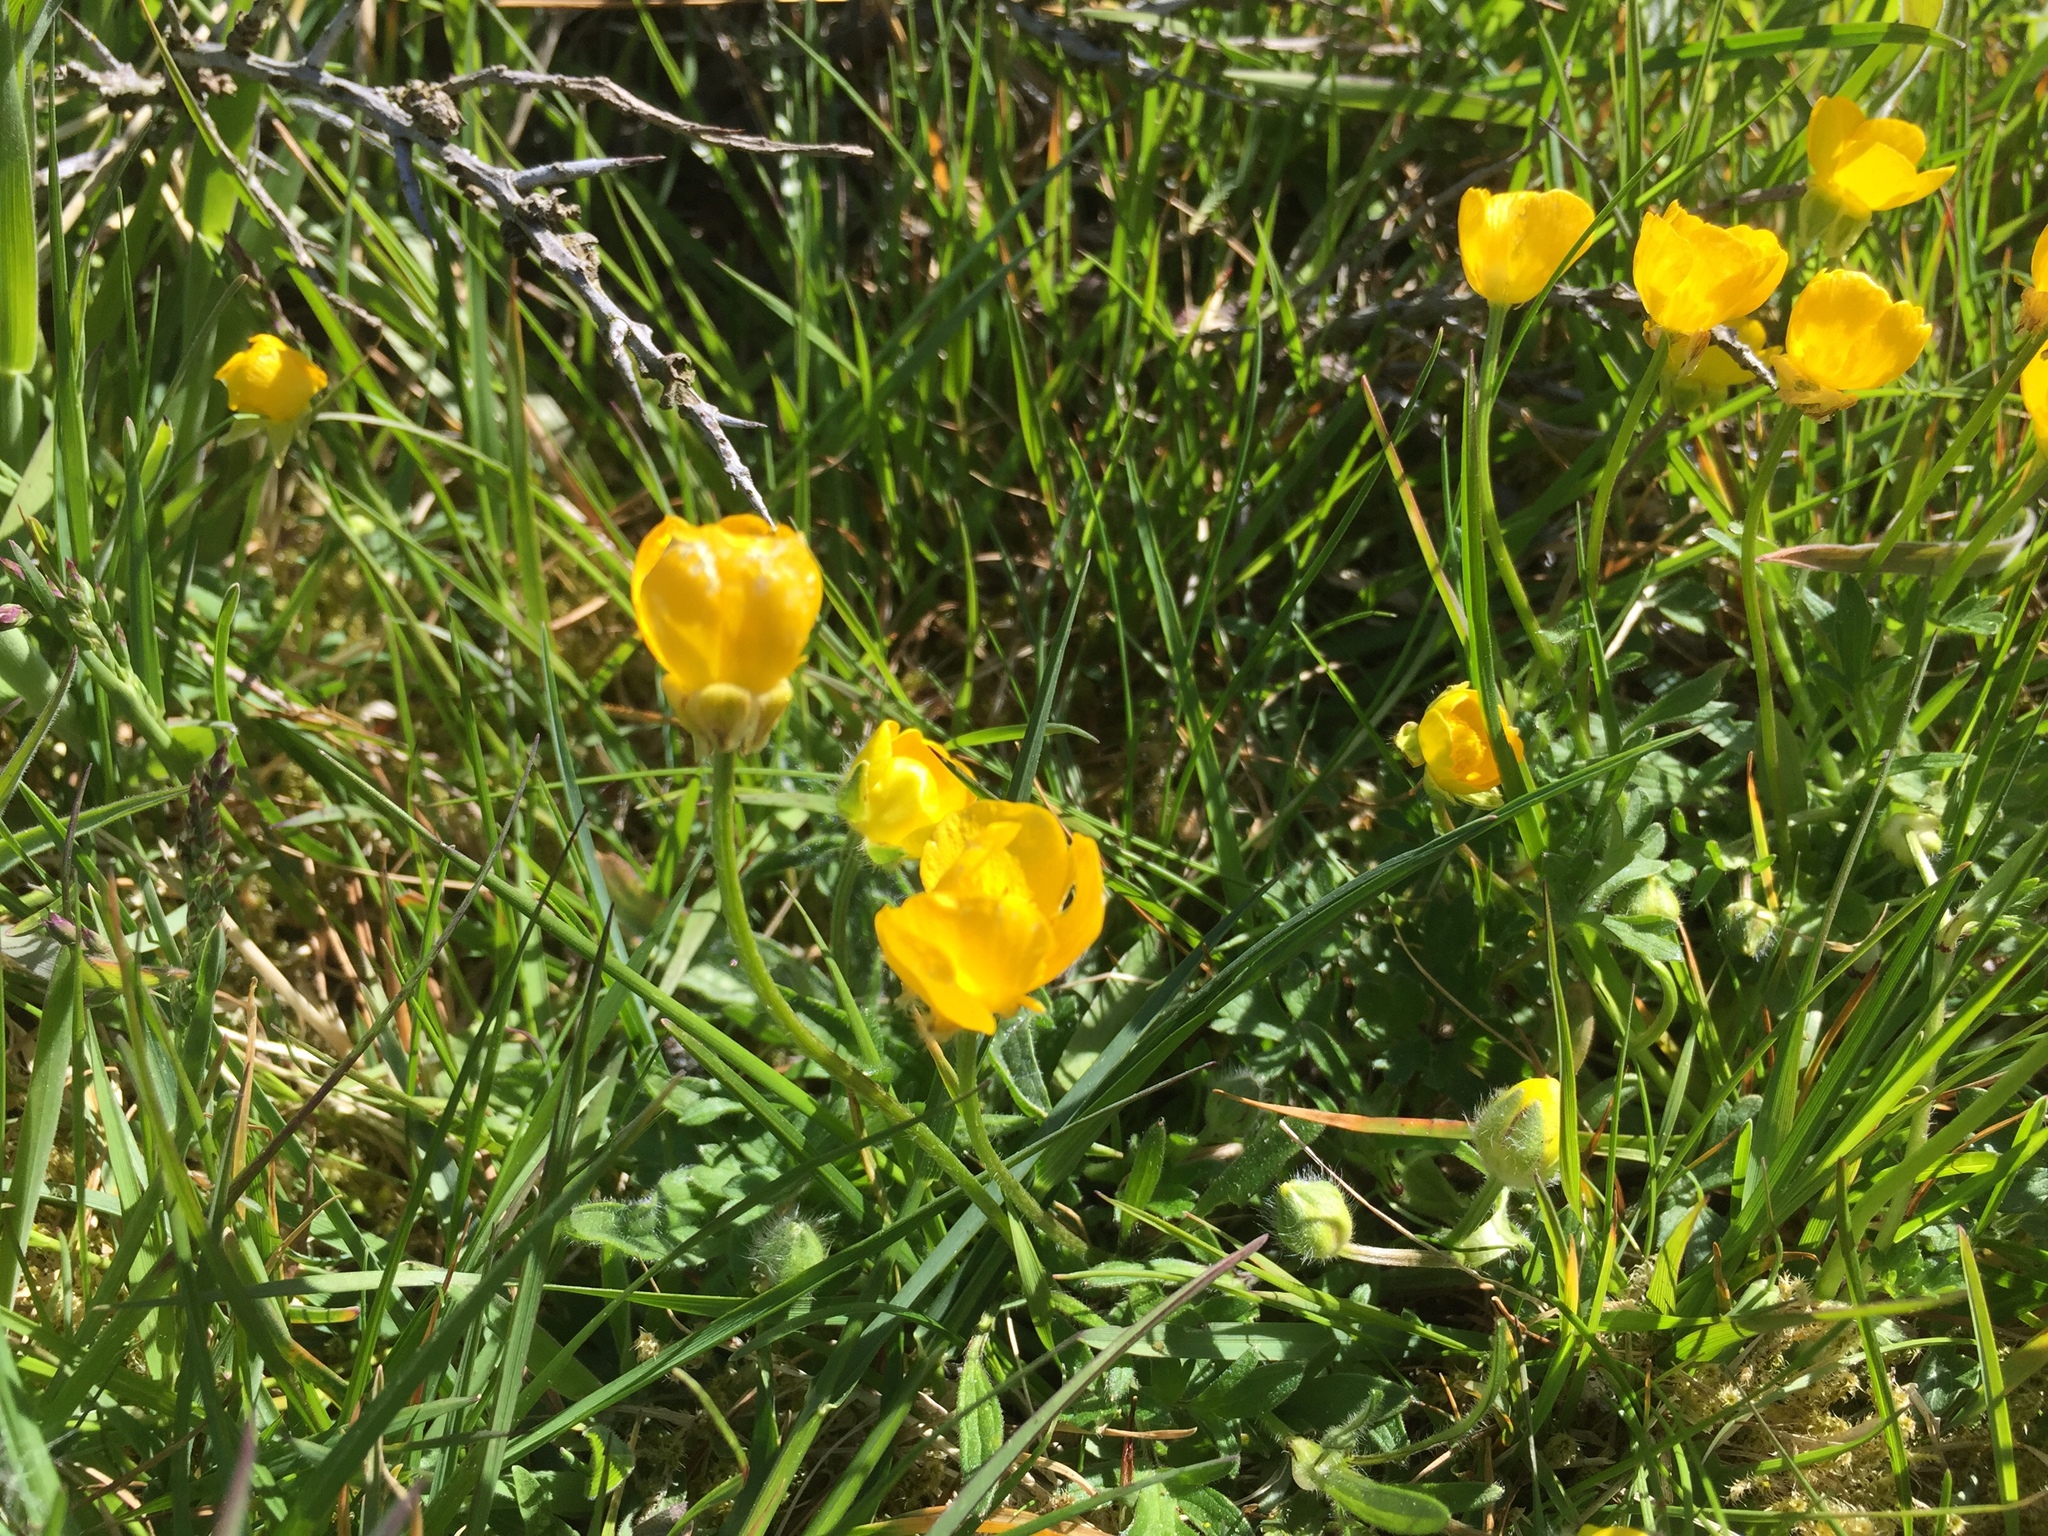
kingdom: Plantae
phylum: Tracheophyta
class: Magnoliopsida
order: Ranunculales
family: Ranunculaceae
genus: Ranunculus
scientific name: Ranunculus bulbosus
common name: Bulbous buttercup
